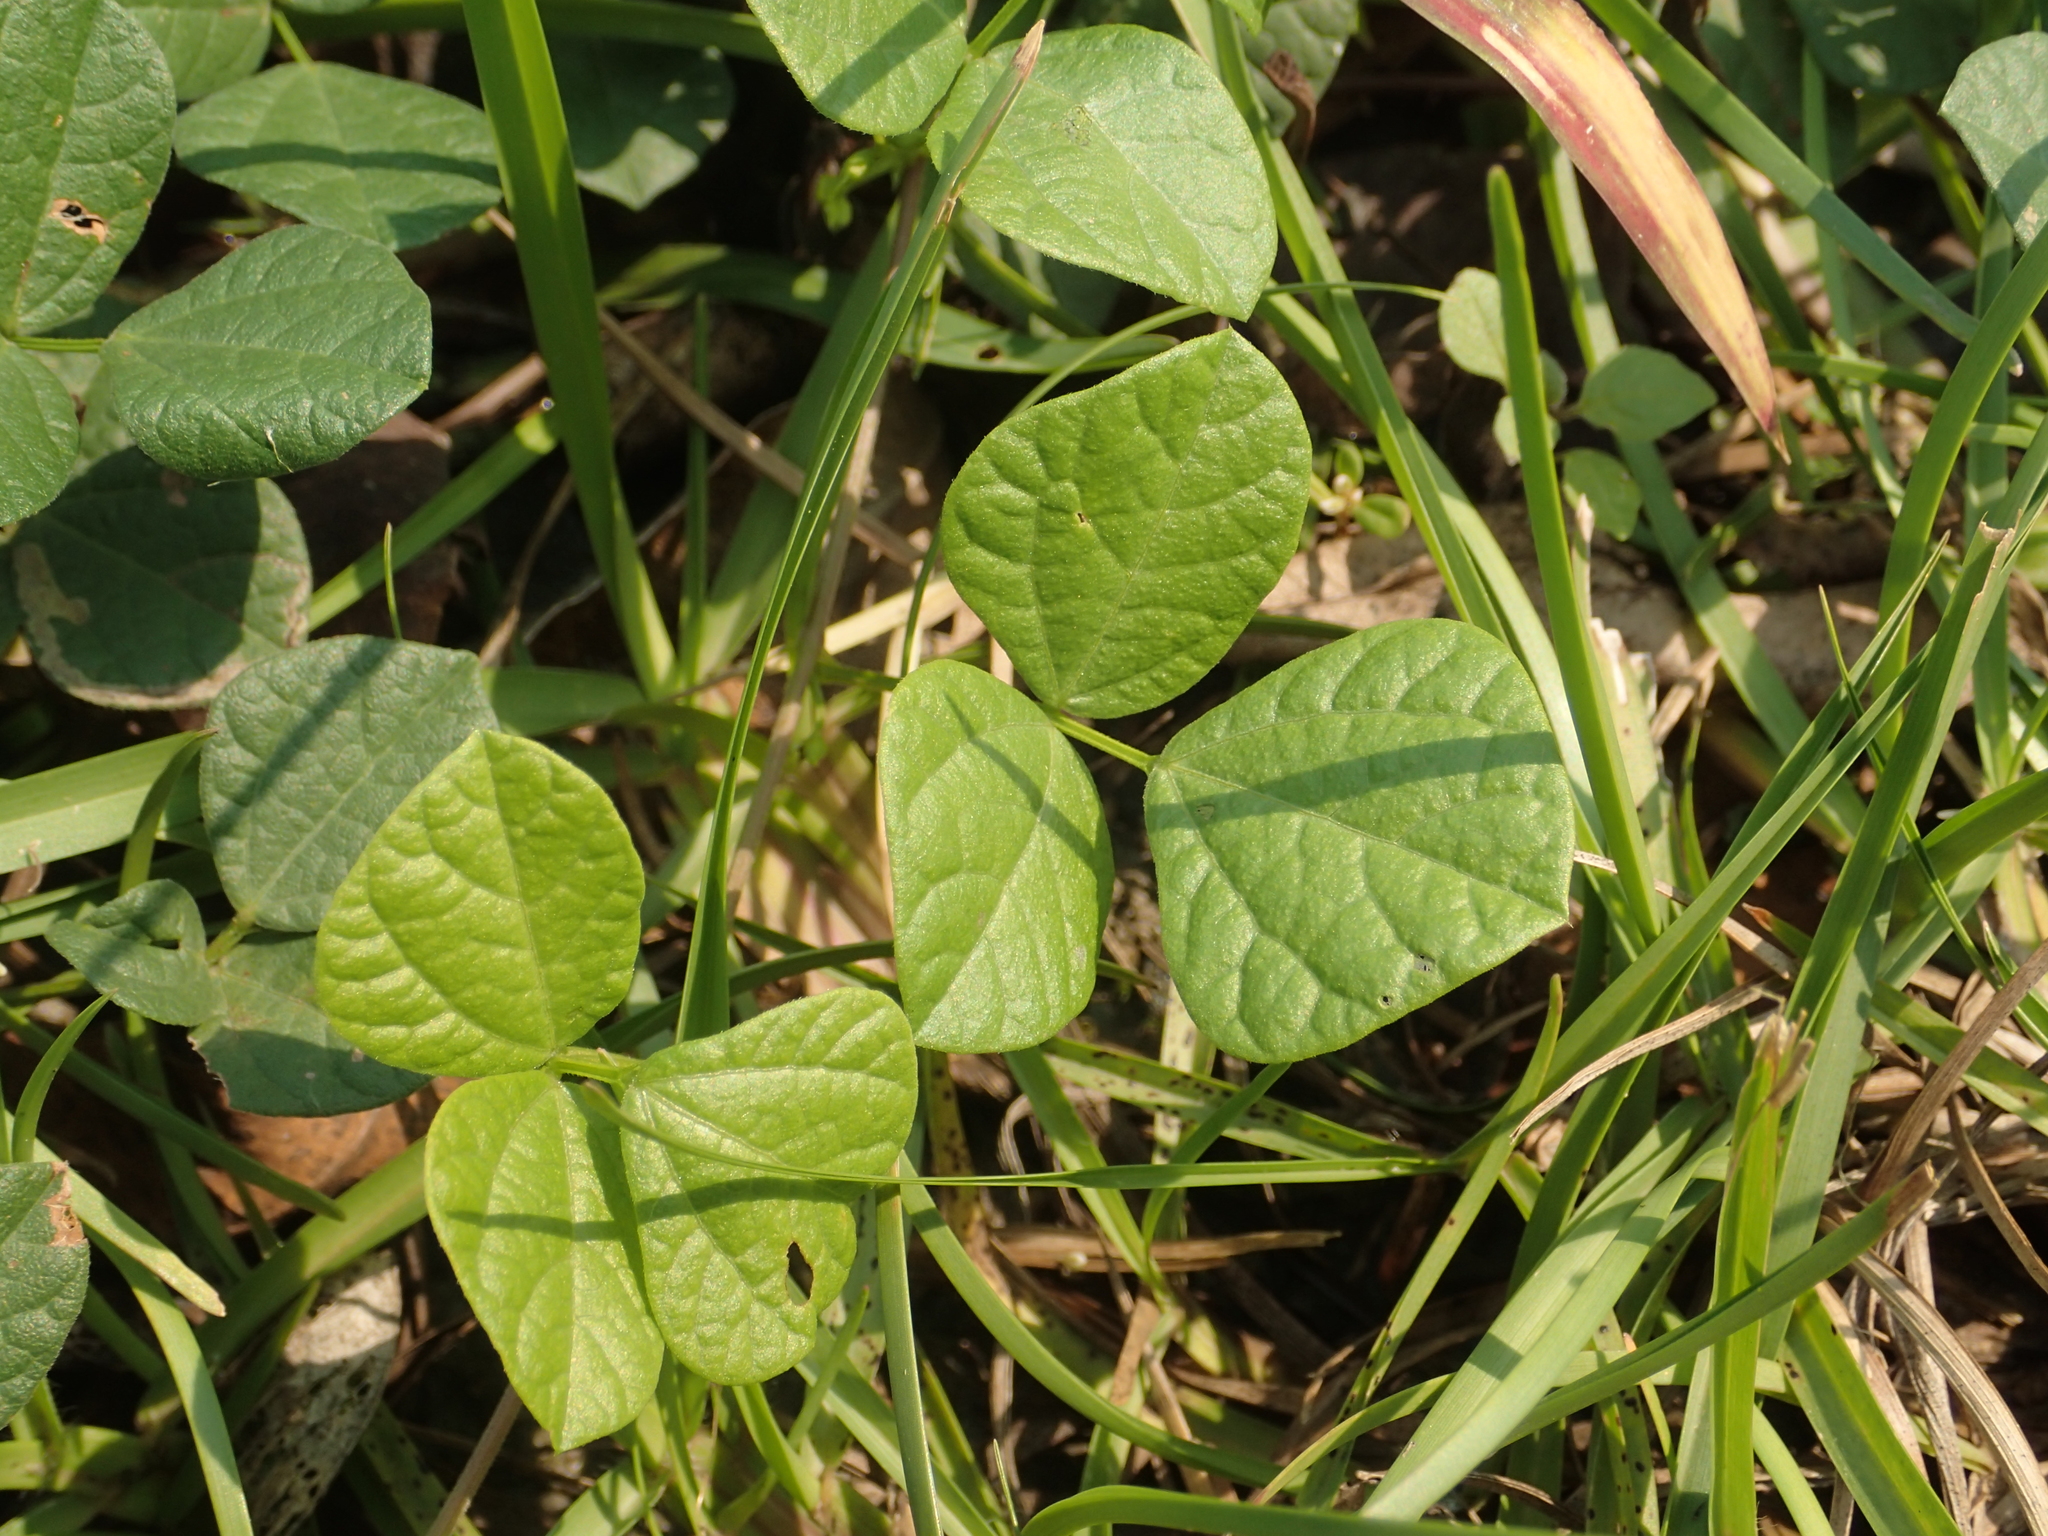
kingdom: Plantae
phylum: Tracheophyta
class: Magnoliopsida
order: Fabales
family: Fabaceae
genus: Rhynchosia
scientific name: Rhynchosia minima
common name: Least snoutbean
